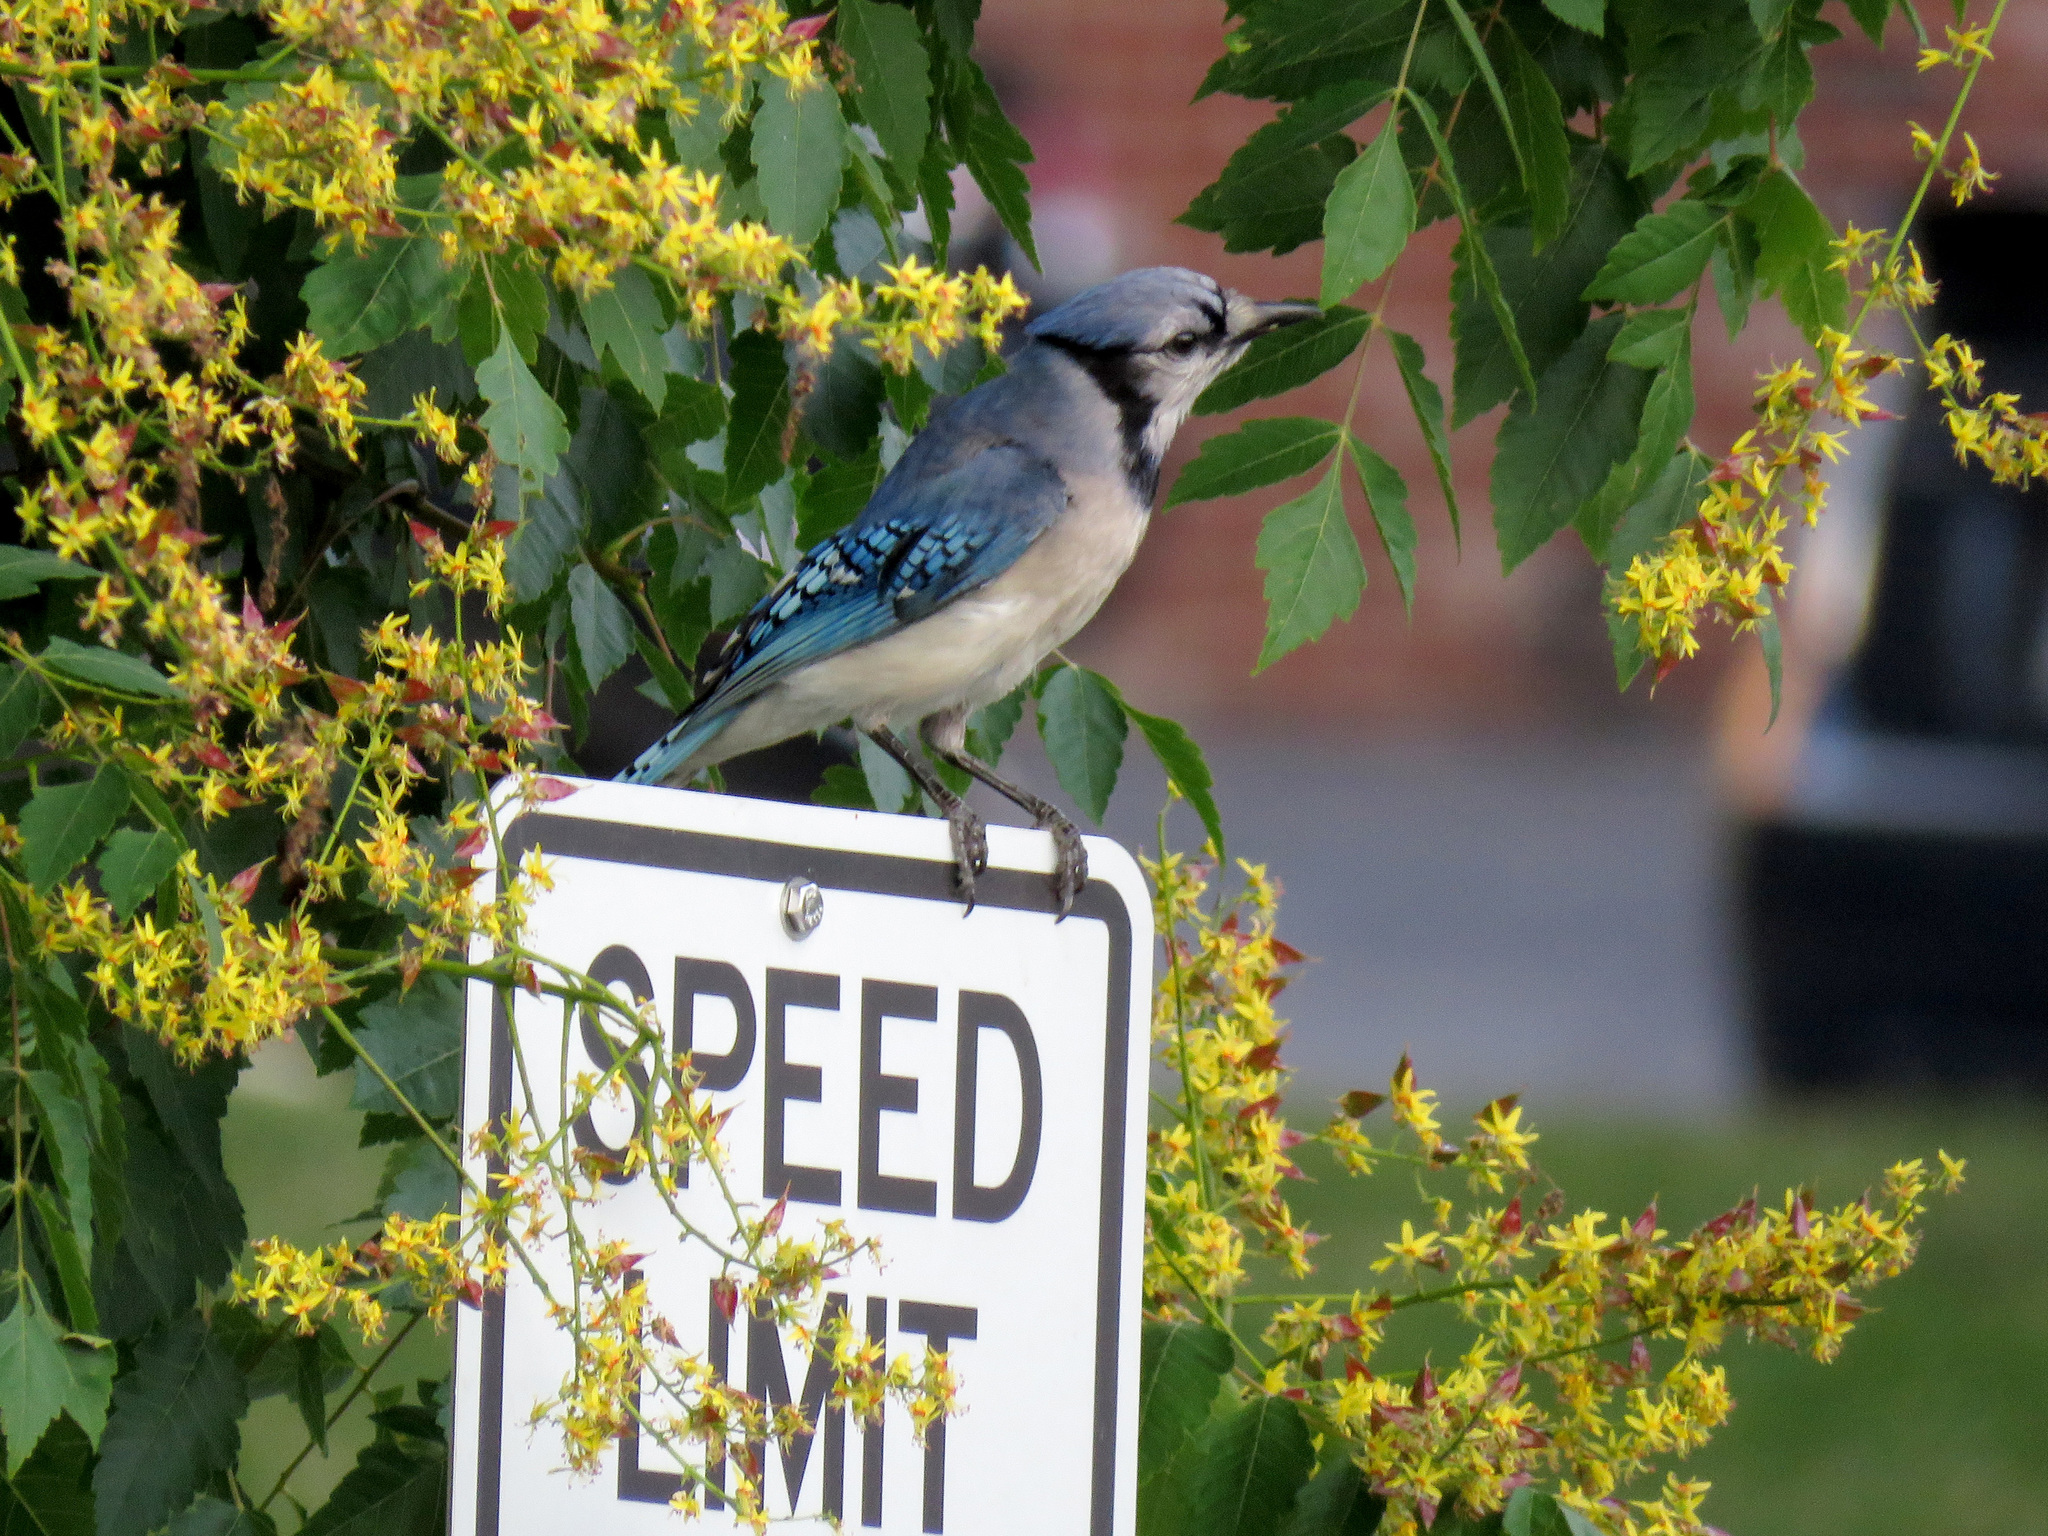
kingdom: Animalia
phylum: Chordata
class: Aves
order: Passeriformes
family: Corvidae
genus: Cyanocitta
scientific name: Cyanocitta cristata
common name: Blue jay
